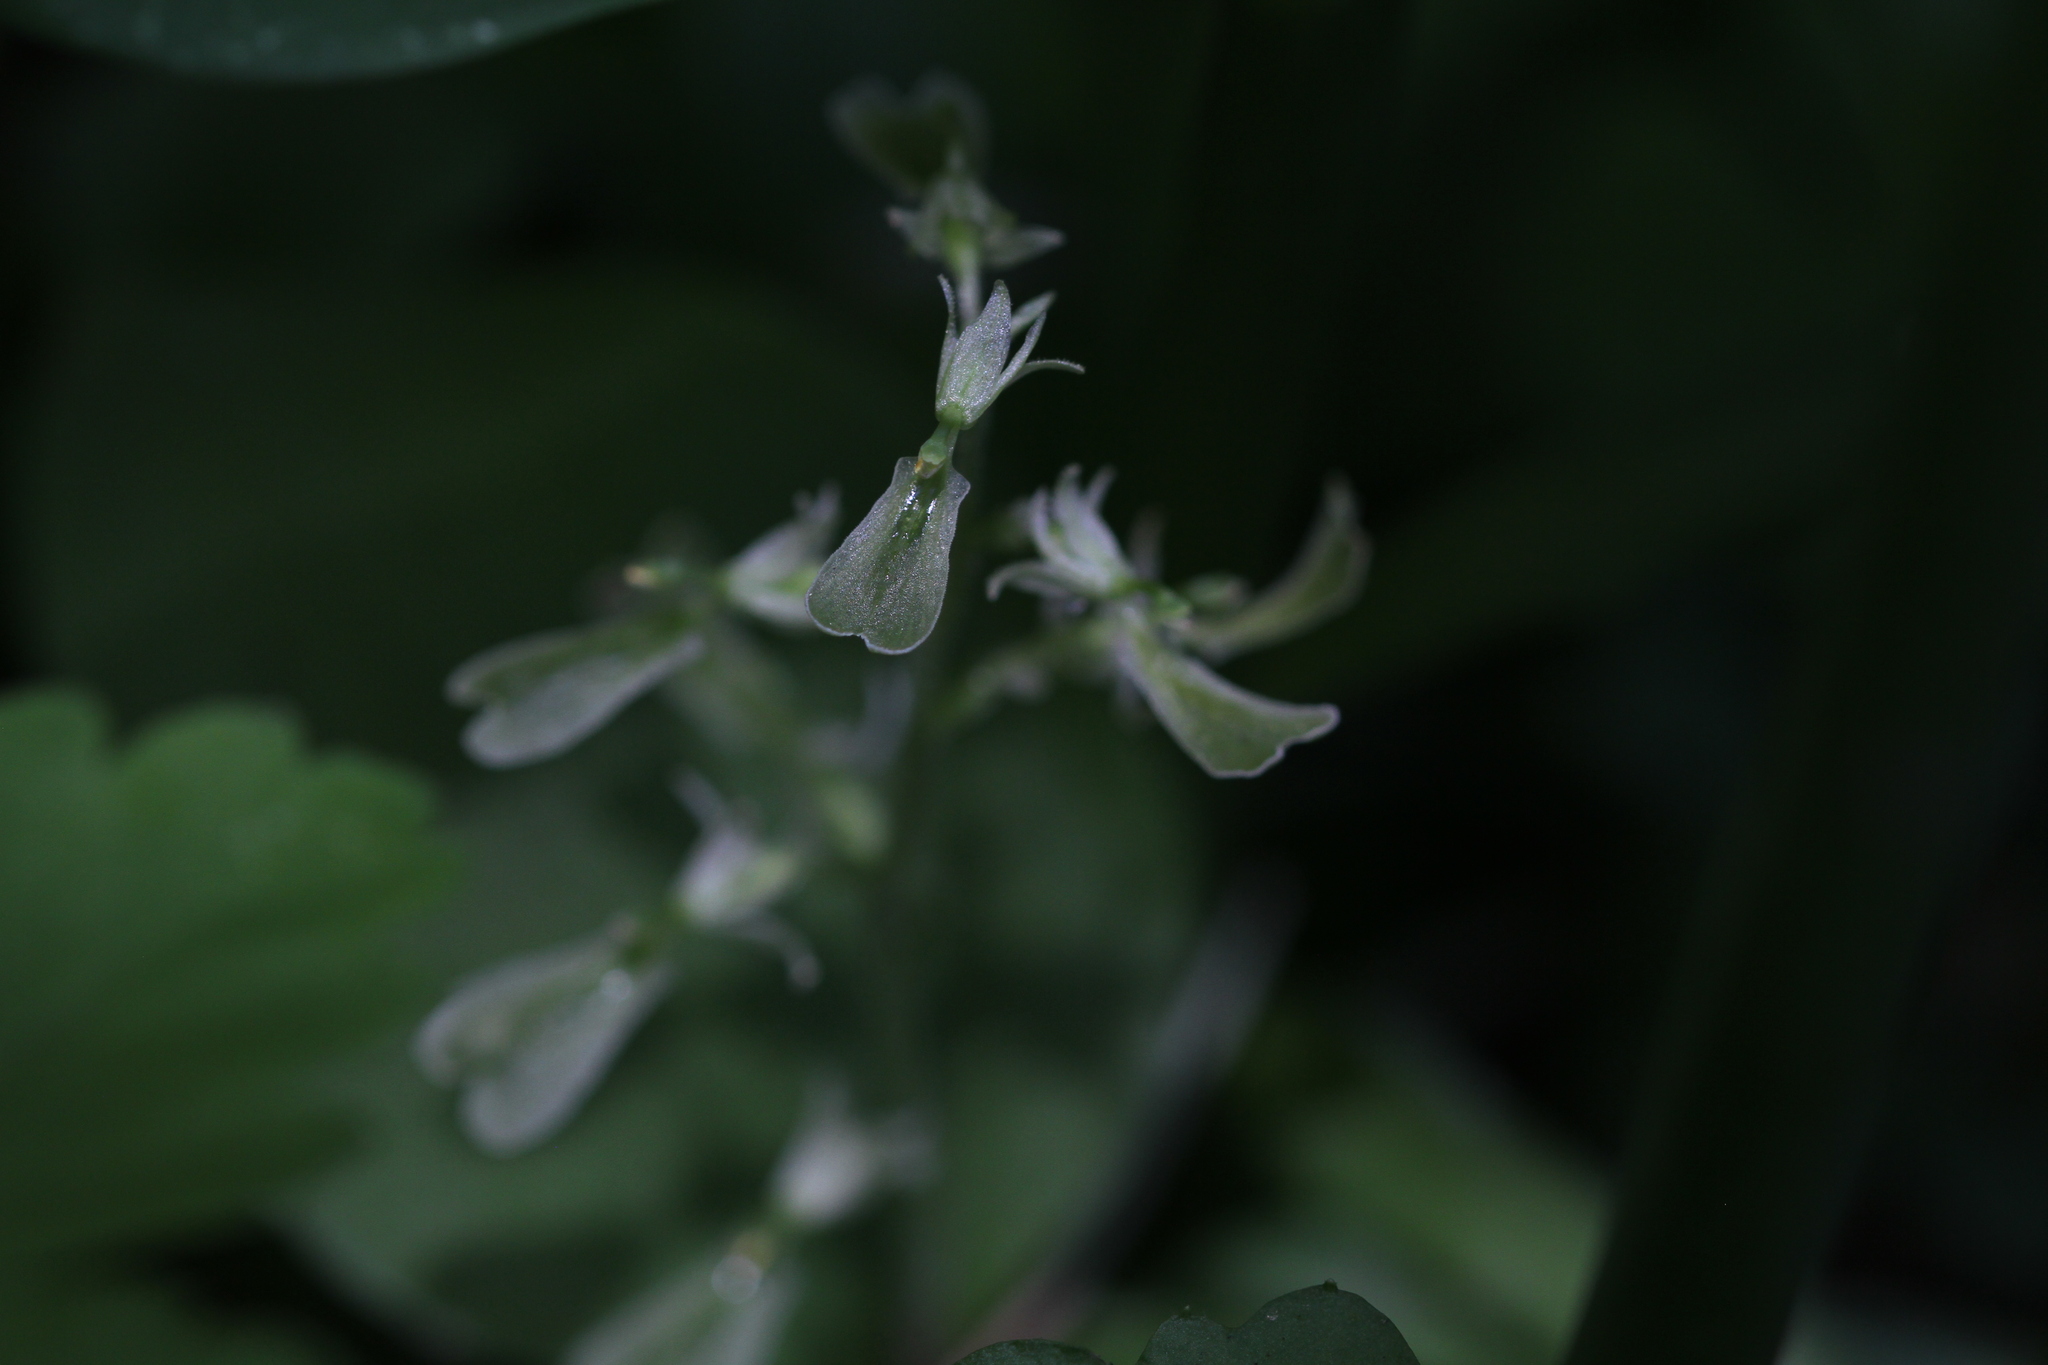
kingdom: Plantae
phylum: Tracheophyta
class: Liliopsida
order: Asparagales
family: Orchidaceae
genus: Neottia
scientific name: Neottia convallarioides
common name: Broadleaf twayblade
